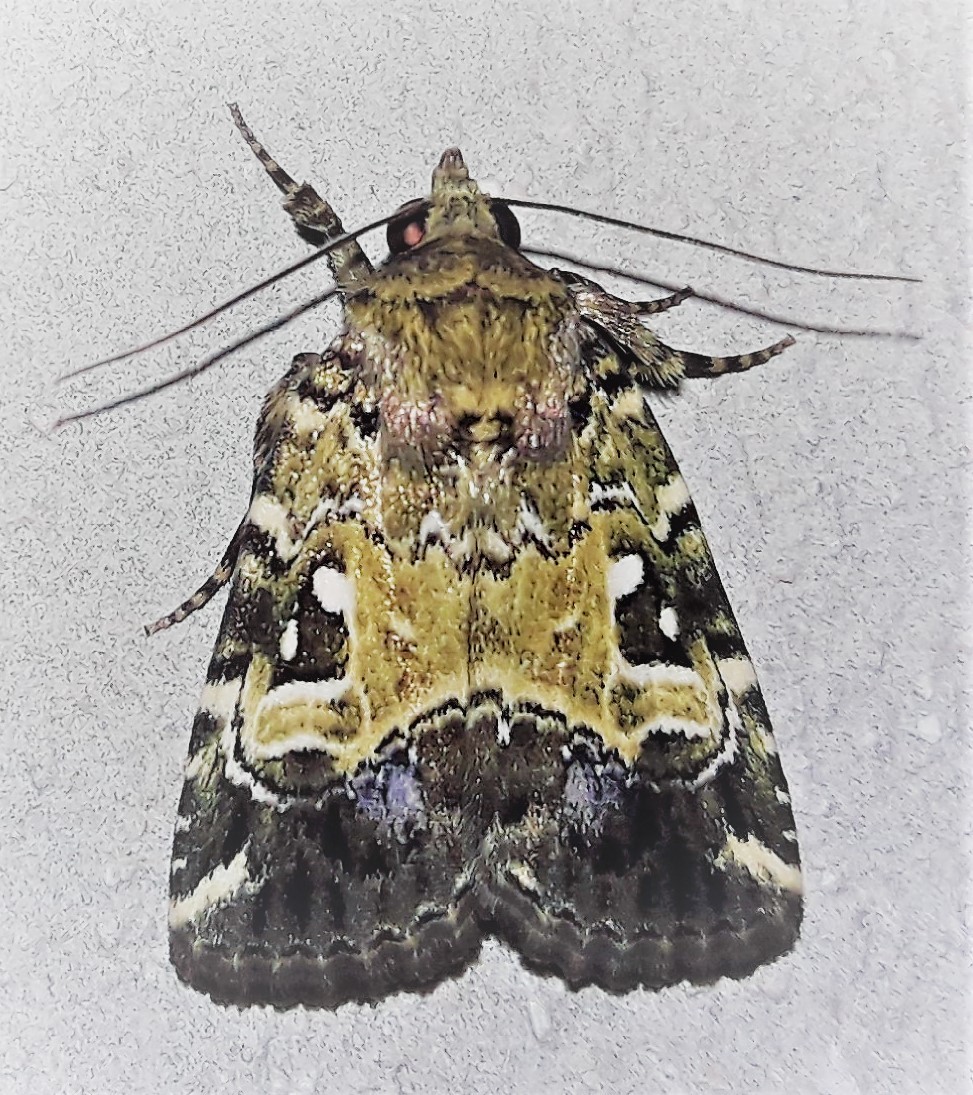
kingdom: Animalia
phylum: Arthropoda
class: Insecta
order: Lepidoptera
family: Noctuidae
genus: Elaphria
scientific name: Elaphria marmorata
